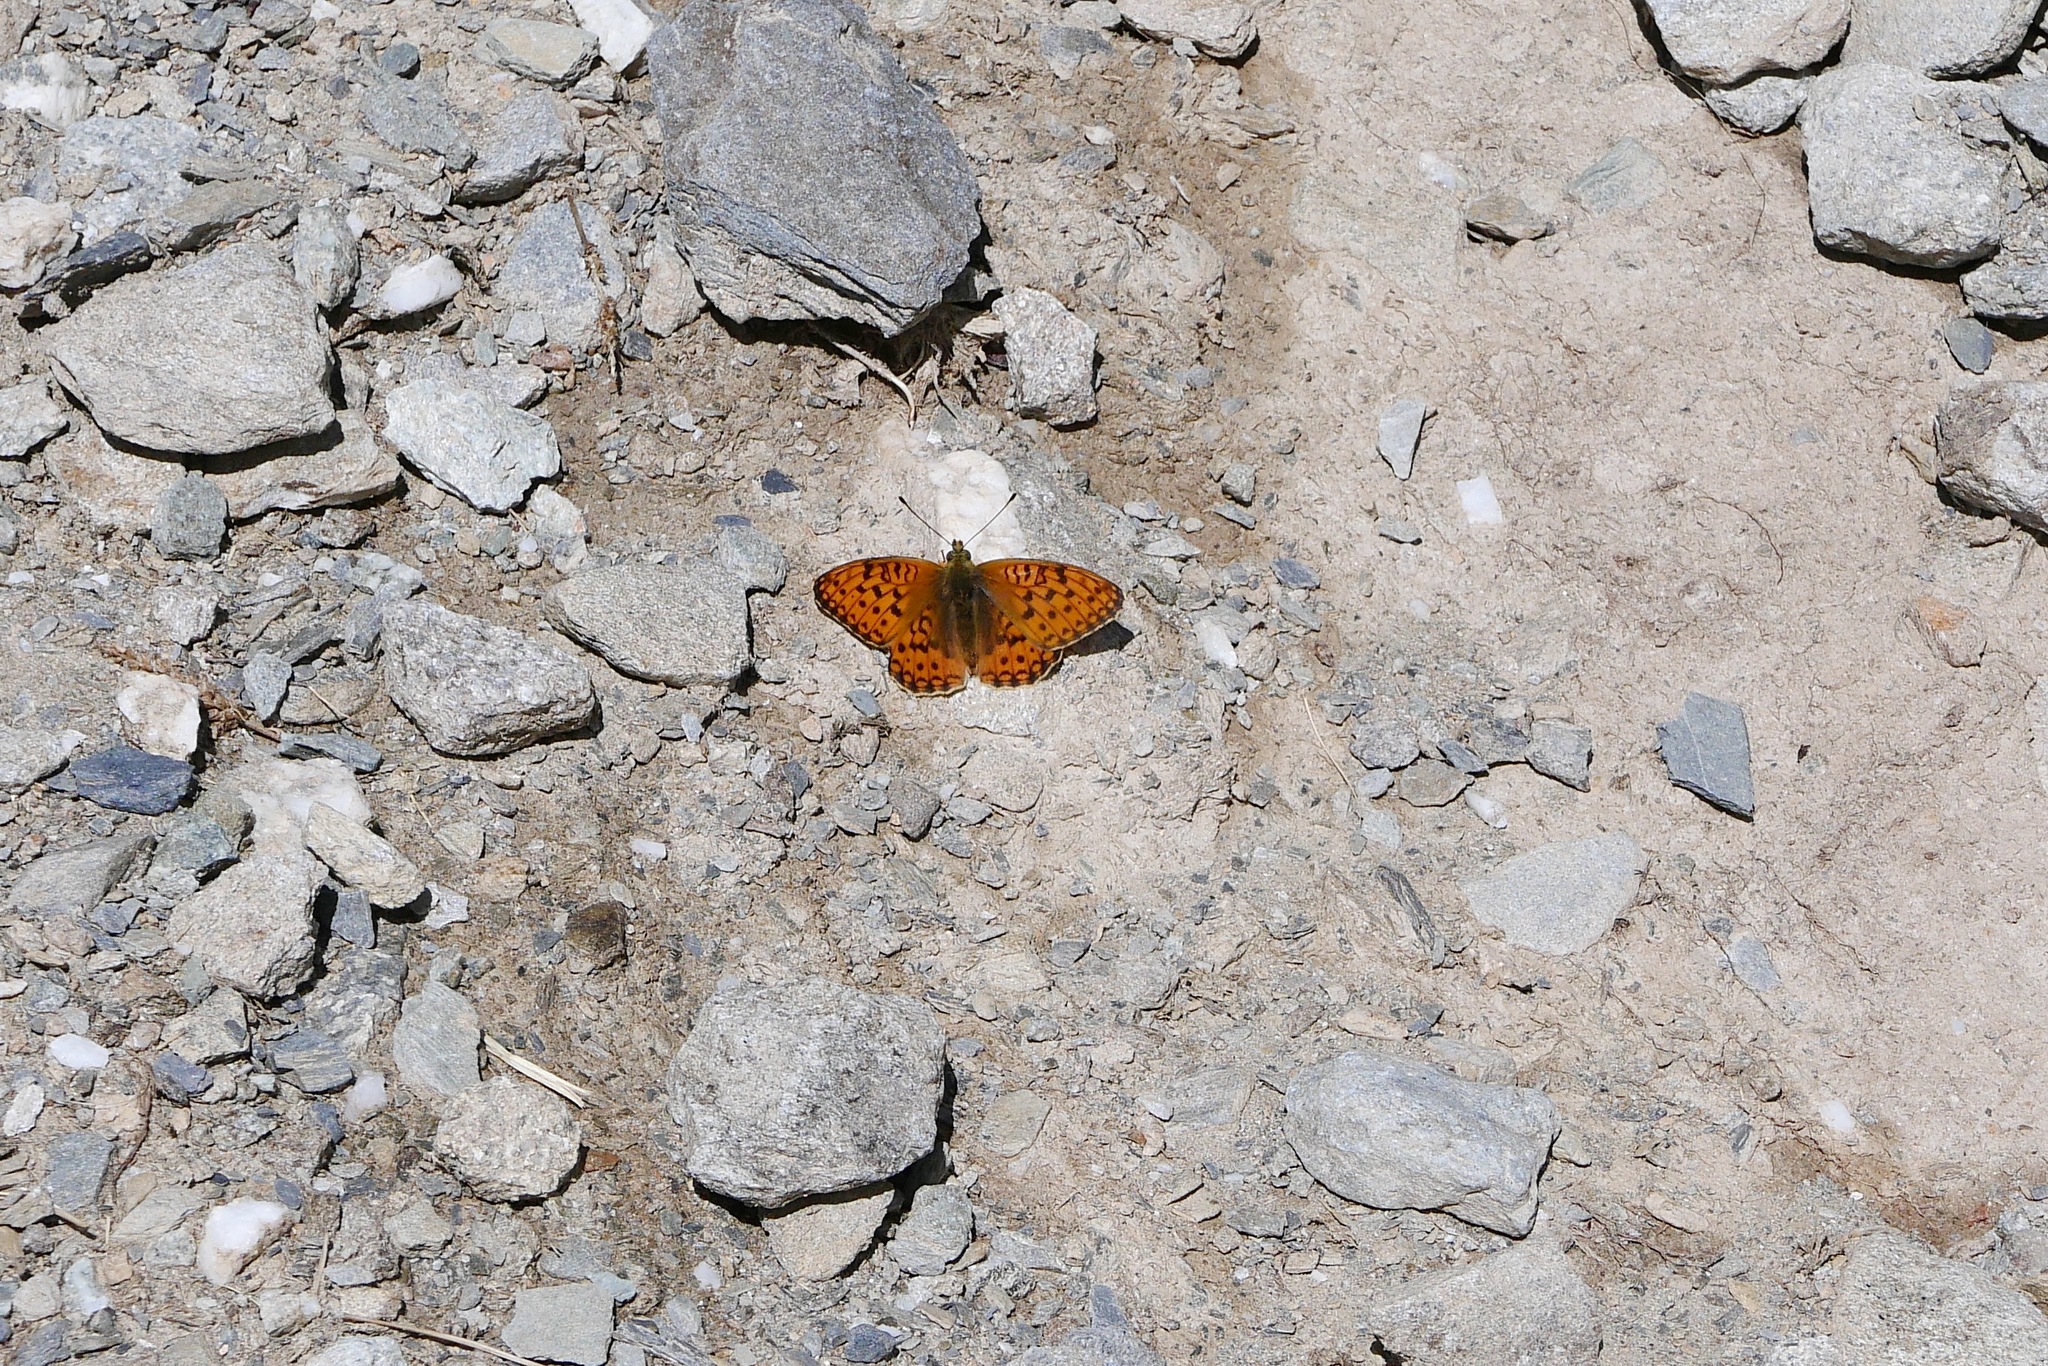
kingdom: Animalia
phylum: Arthropoda
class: Insecta
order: Lepidoptera
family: Nymphalidae
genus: Fabriciana
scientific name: Fabriciana niobe
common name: Niobe fritillary
